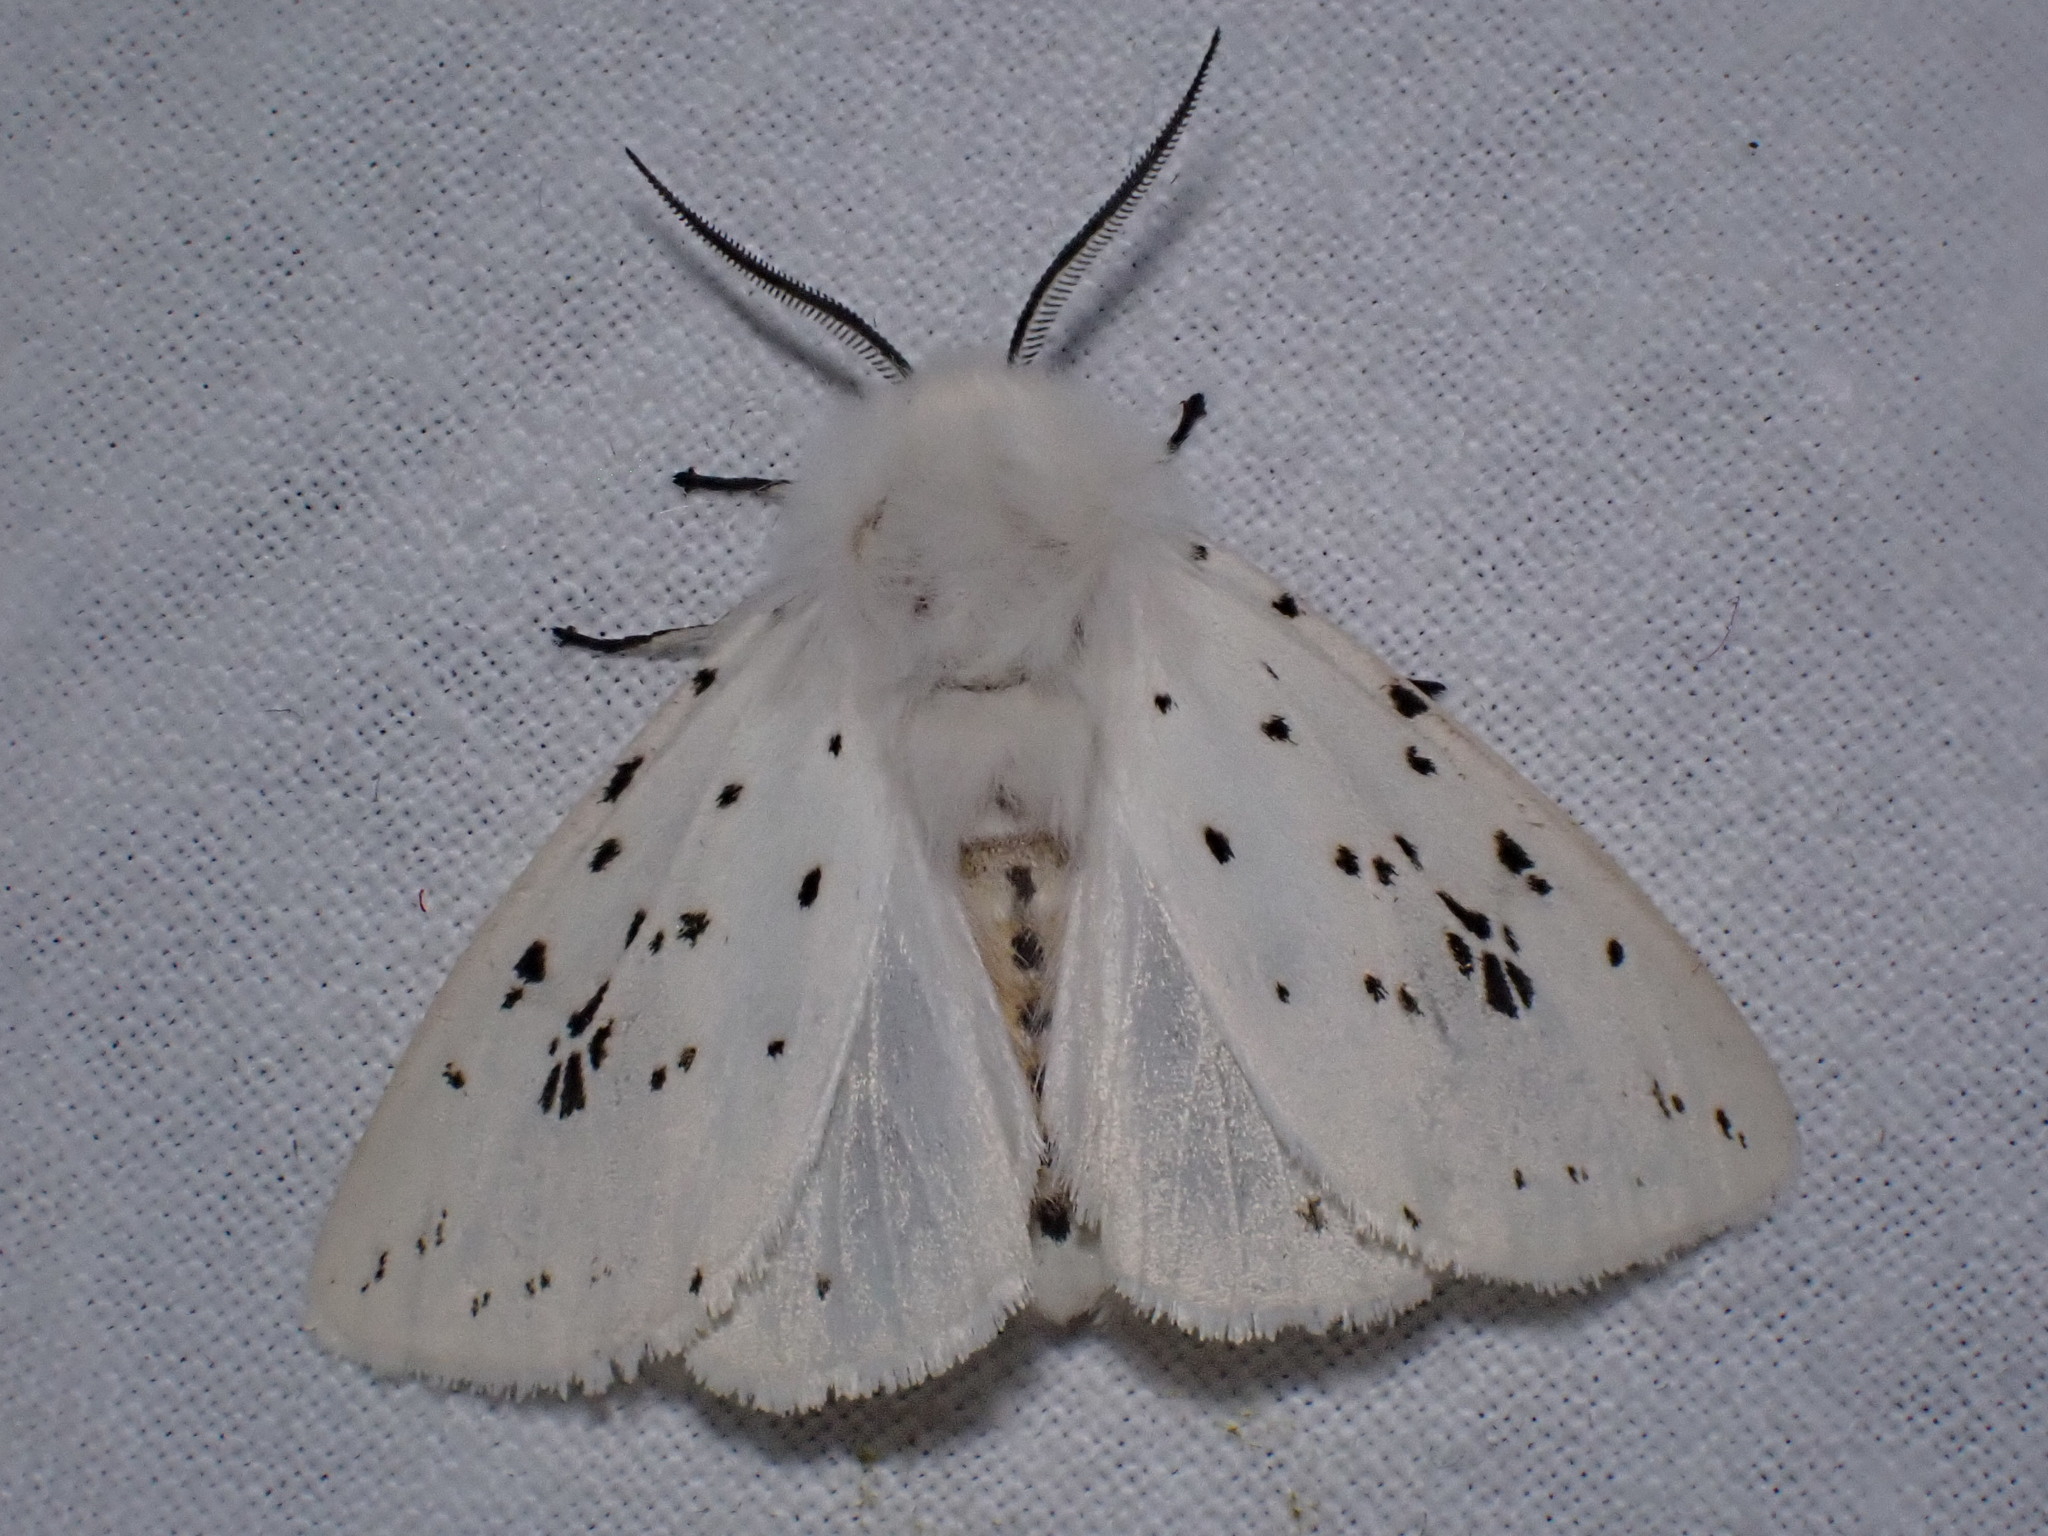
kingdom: Animalia
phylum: Arthropoda
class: Insecta
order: Lepidoptera
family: Erebidae
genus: Spilosoma
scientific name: Spilosoma lubricipeda
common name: White ermine
